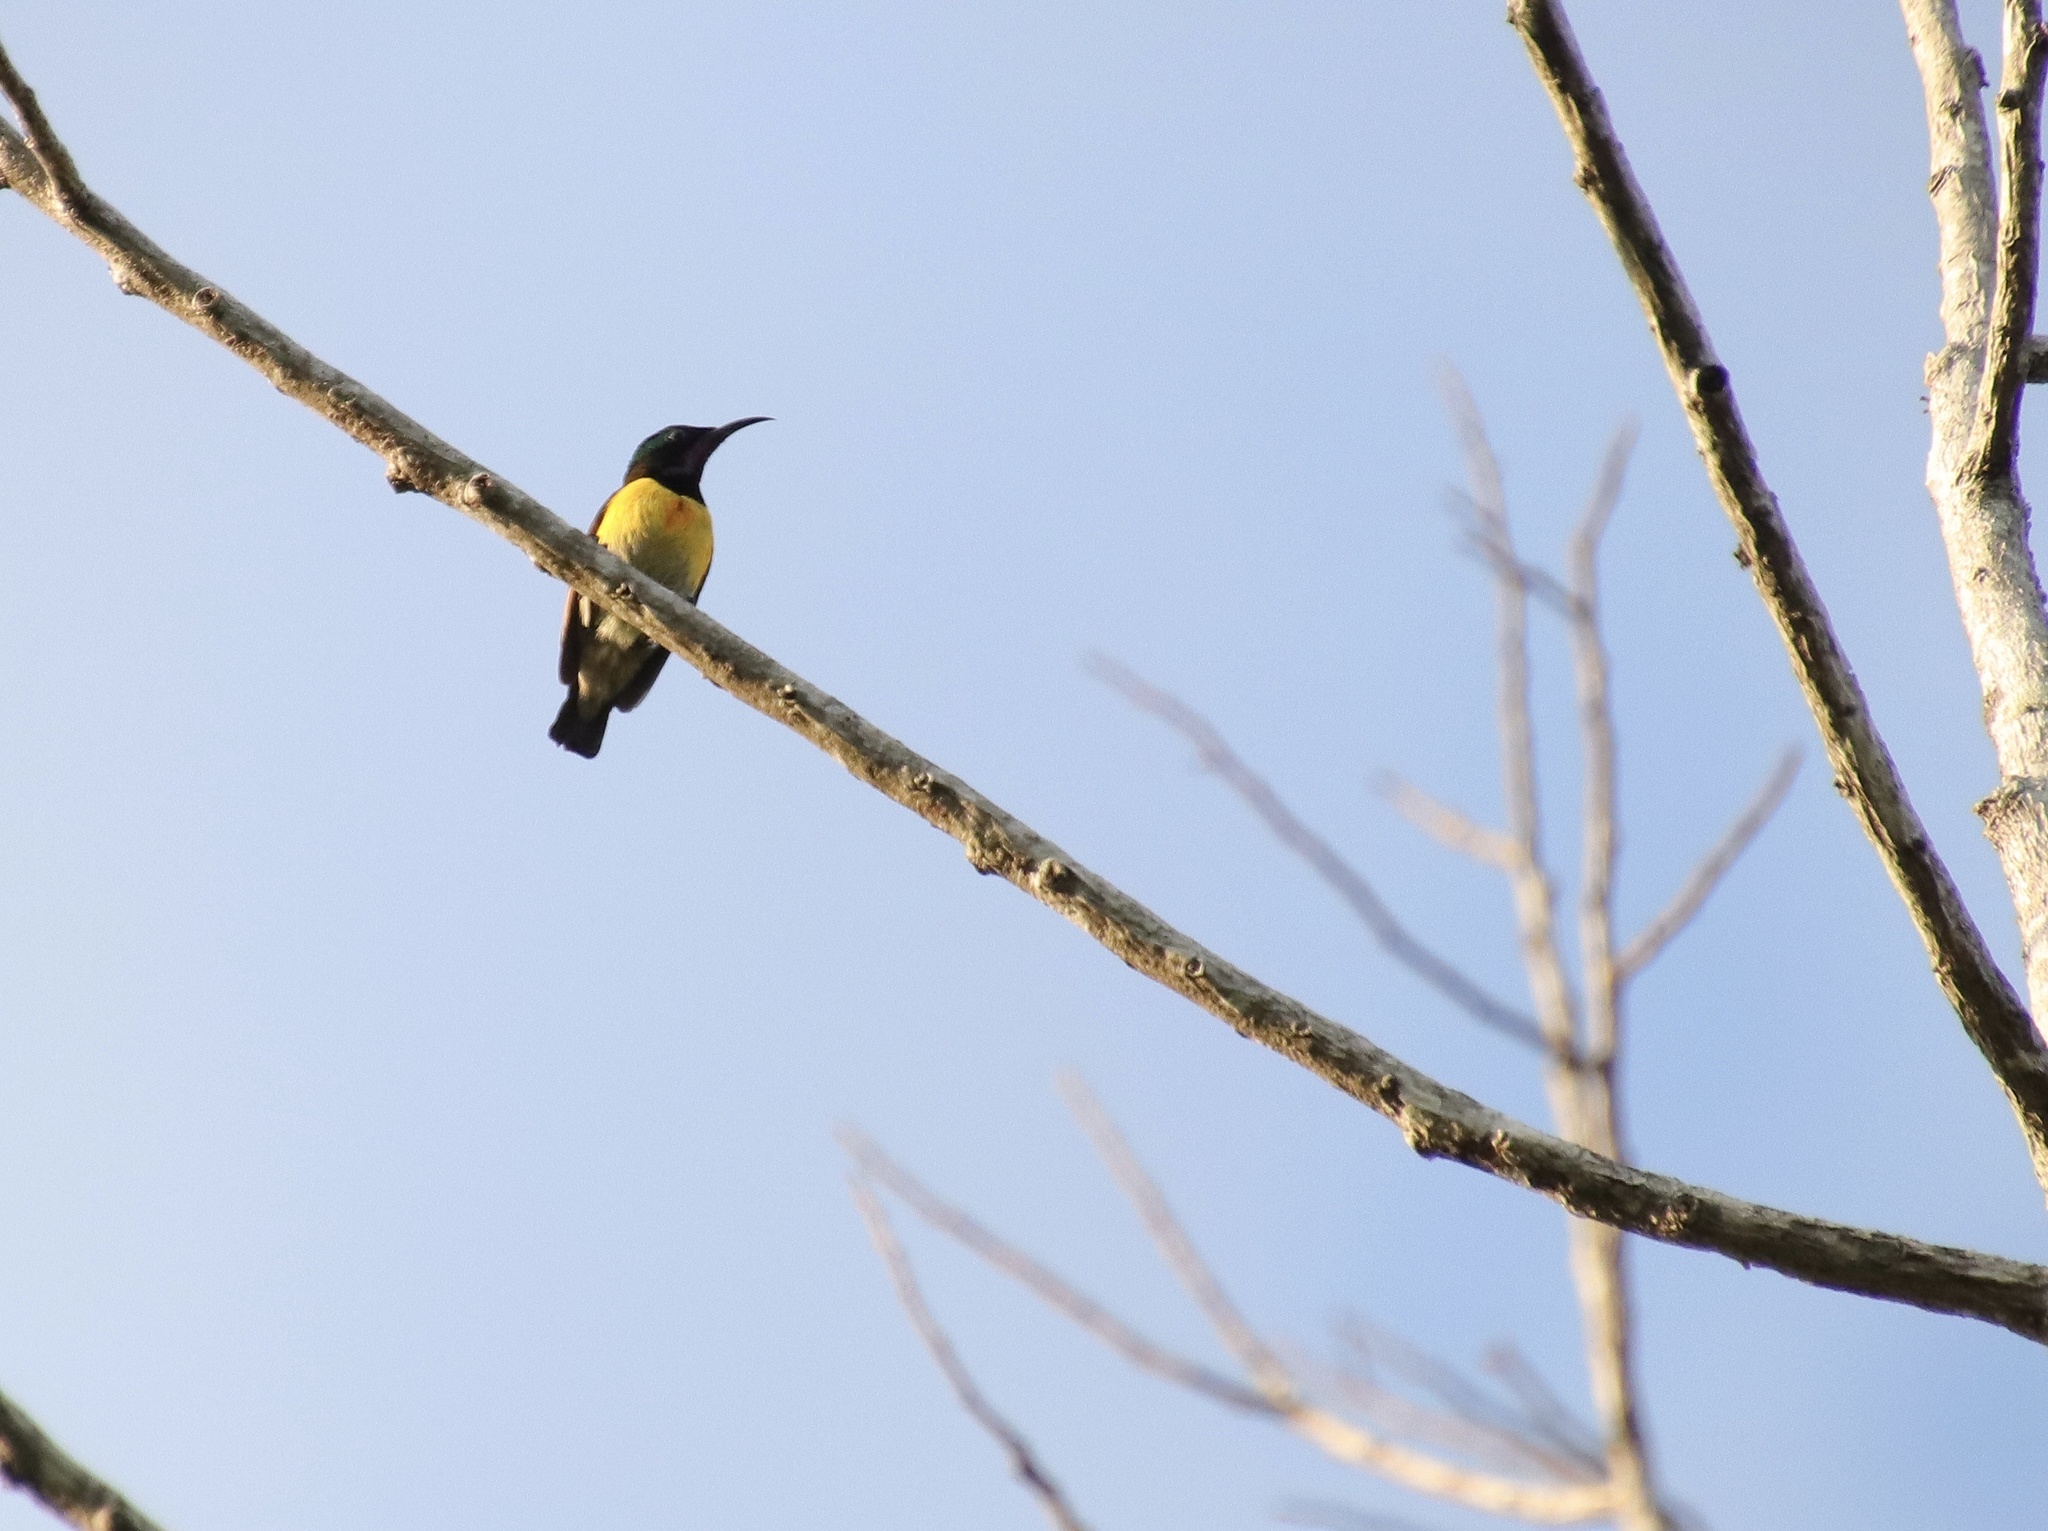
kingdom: Animalia
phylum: Chordata
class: Aves
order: Passeriformes
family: Nectariniidae
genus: Cinnyris
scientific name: Cinnyris jugularis
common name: Olive-backed sunbird
